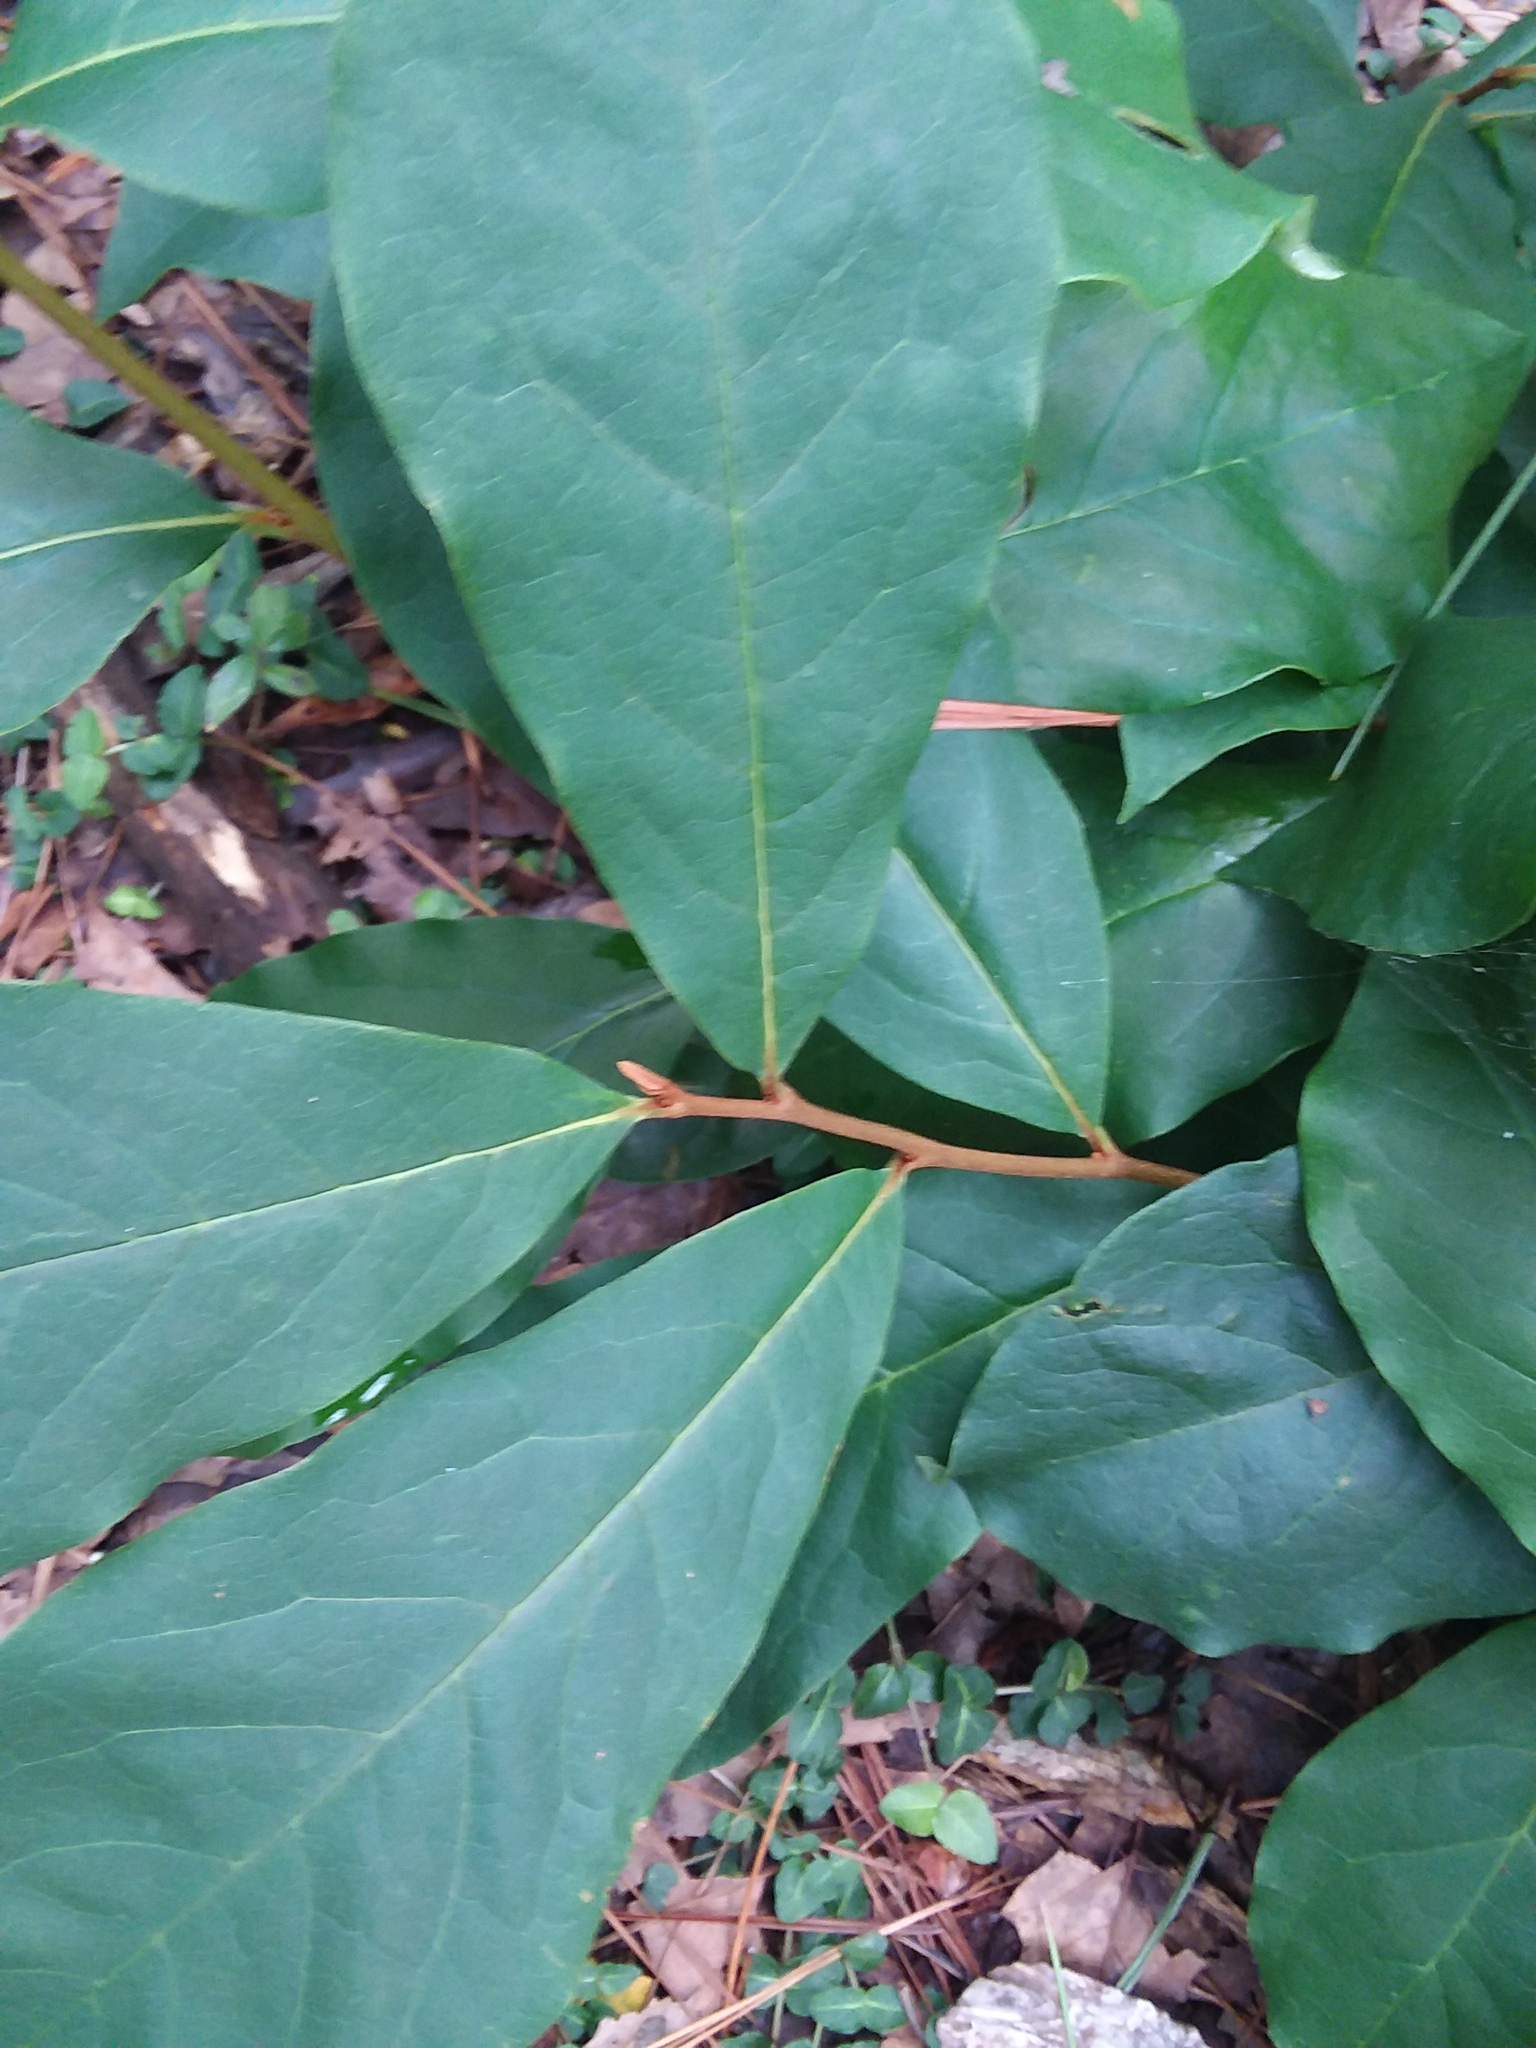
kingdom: Plantae
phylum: Tracheophyta
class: Magnoliopsida
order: Magnoliales
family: Annonaceae
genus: Asimina
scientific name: Asimina parviflora
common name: Dwarf pawpaw
